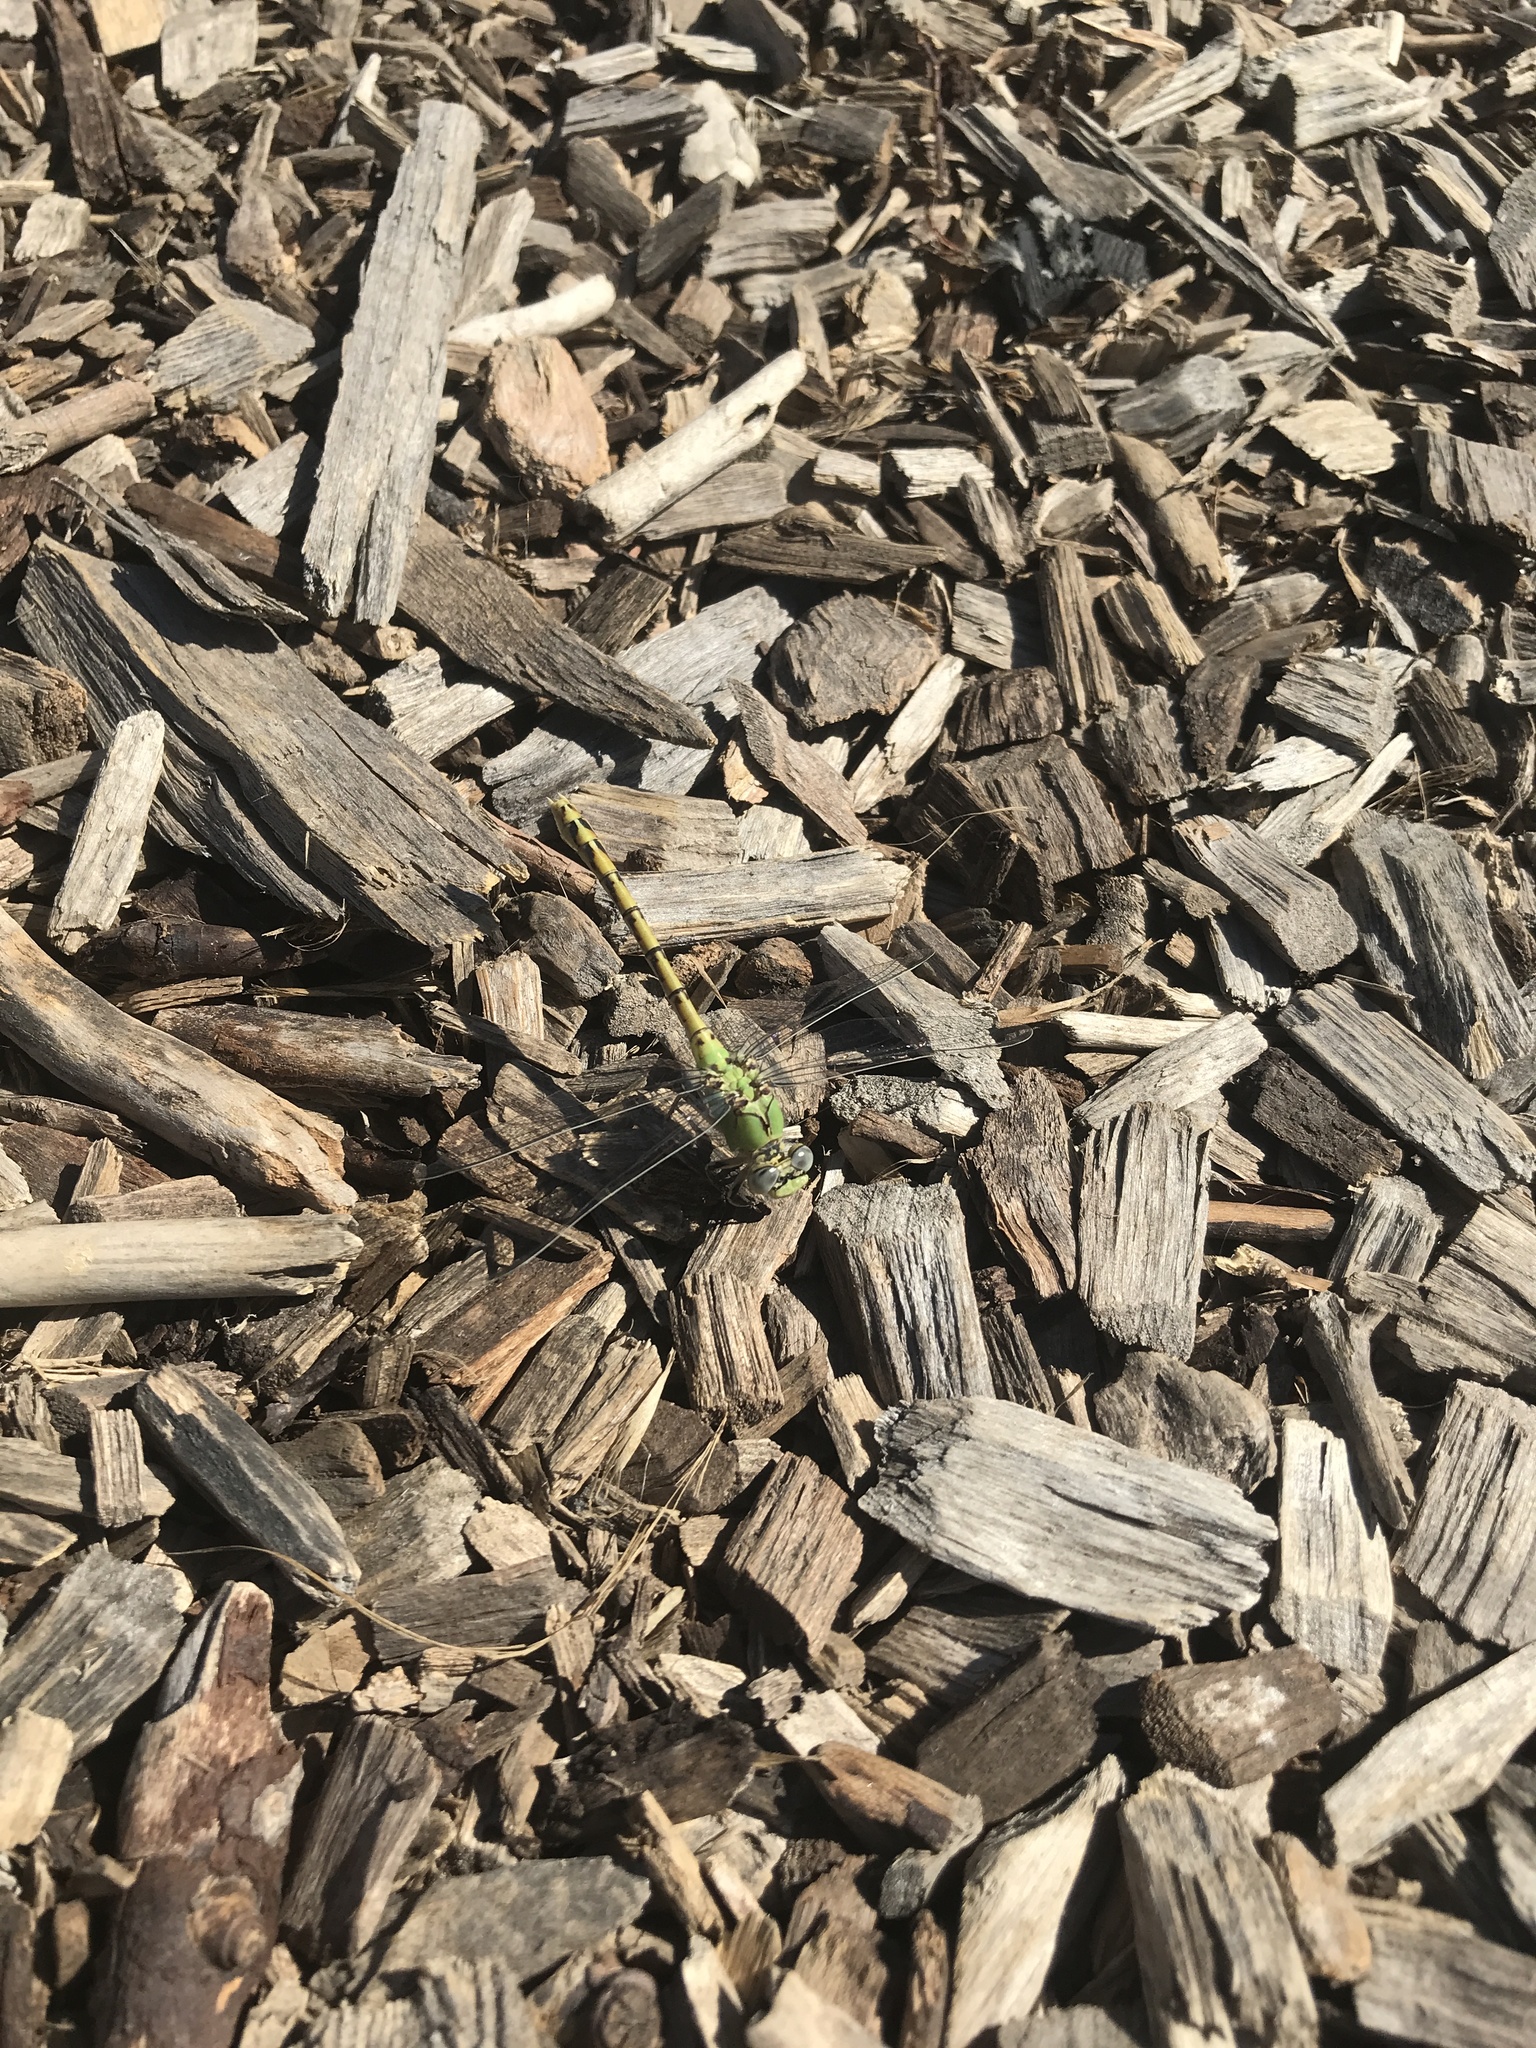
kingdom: Animalia
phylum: Arthropoda
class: Insecta
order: Odonata
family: Gomphidae
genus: Ophiogomphus
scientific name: Ophiogomphus severus
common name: Pale snaketail
